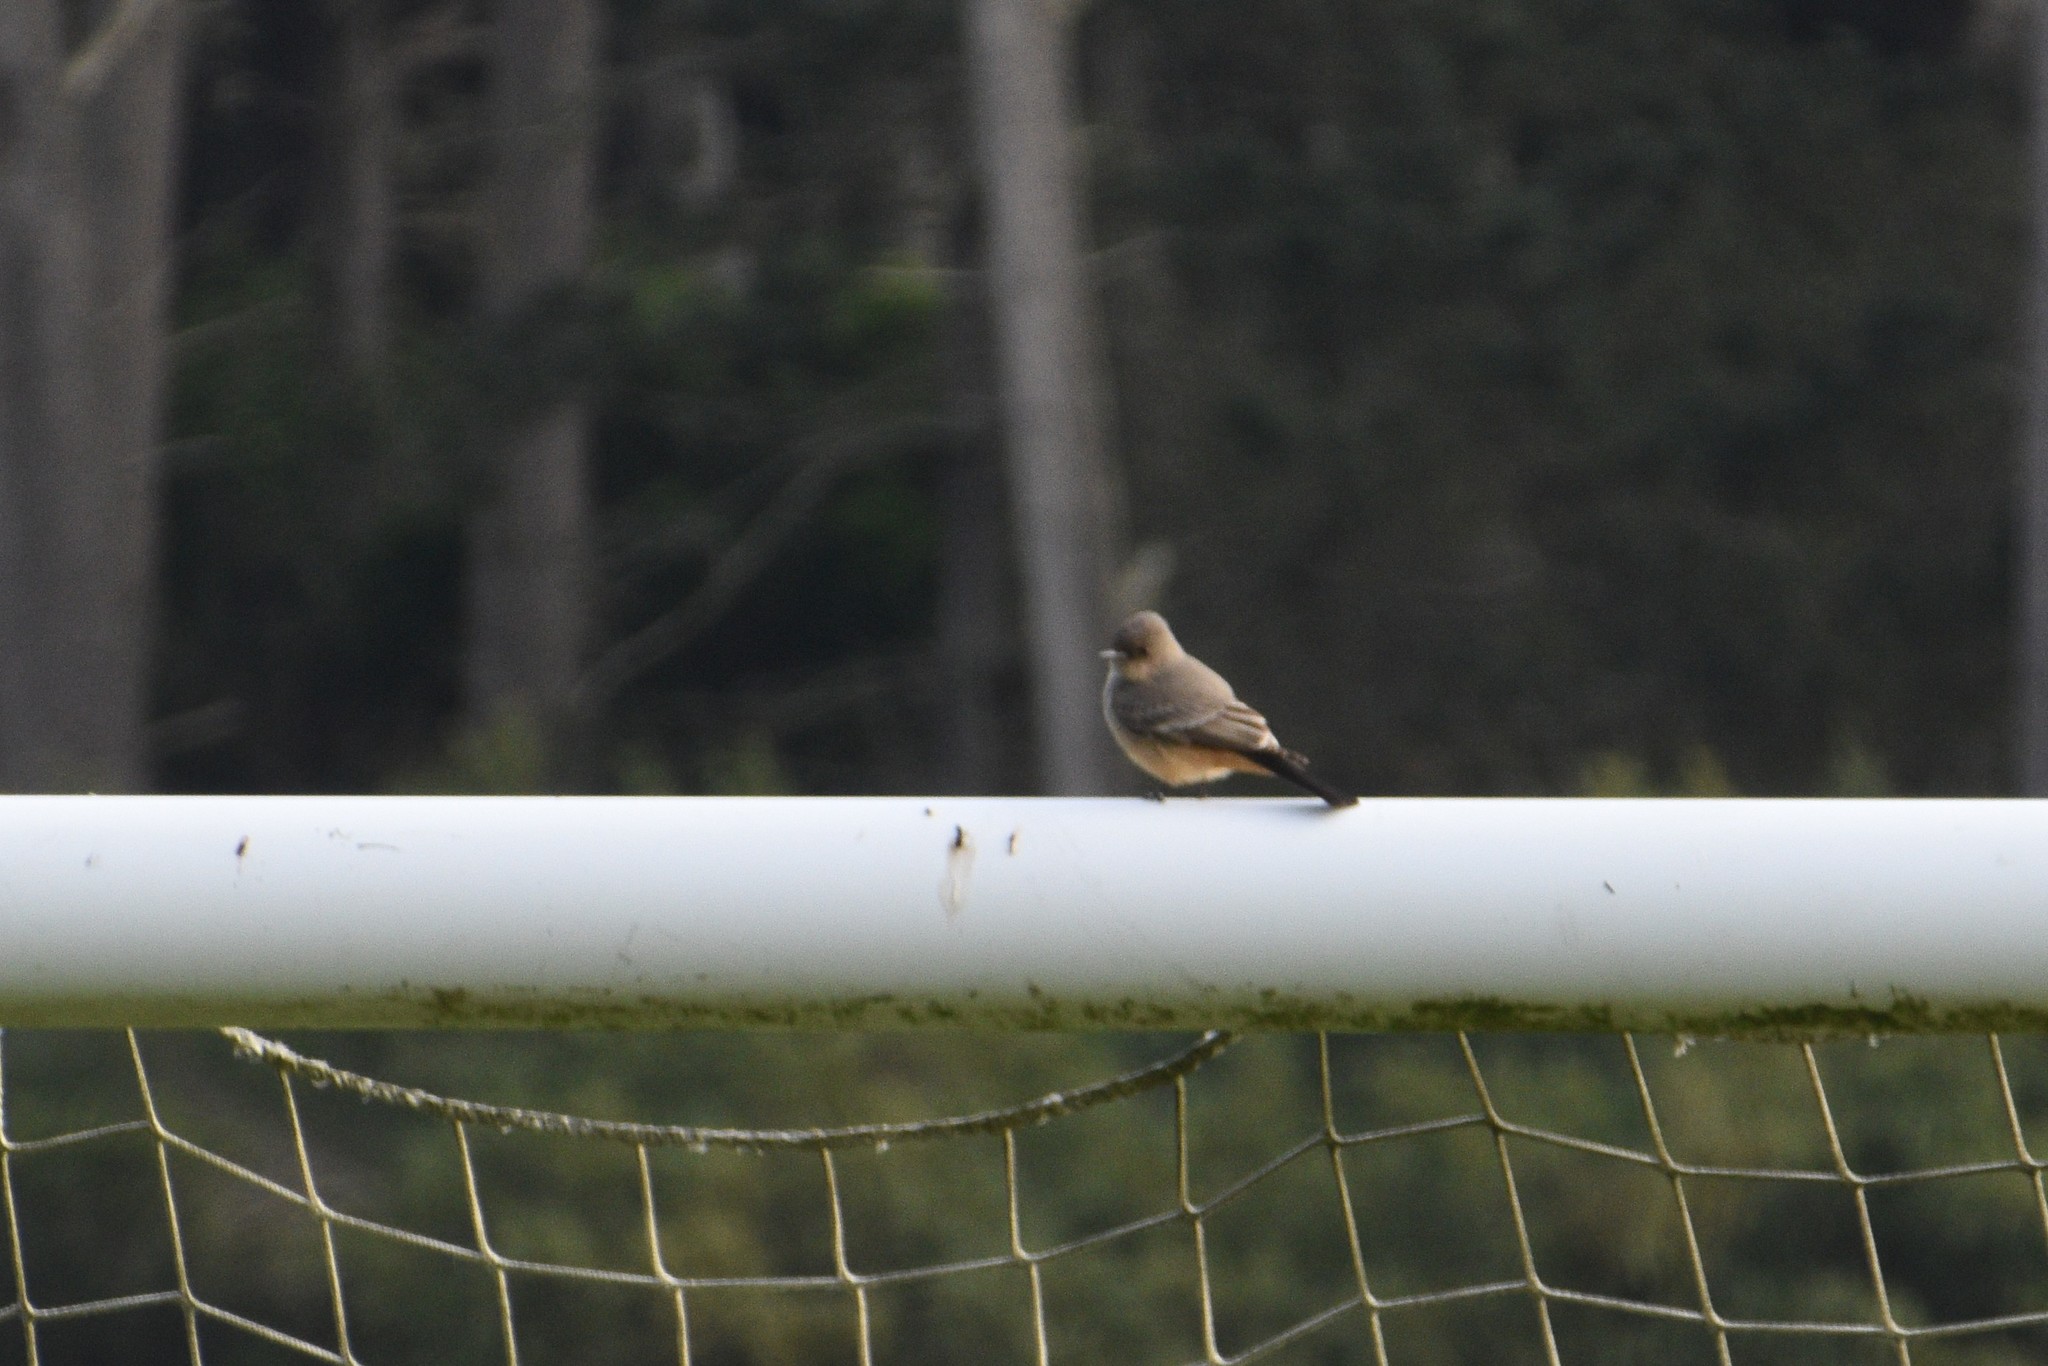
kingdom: Animalia
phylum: Chordata
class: Aves
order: Passeriformes
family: Tyrannidae
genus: Sayornis
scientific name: Sayornis saya
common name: Say's phoebe
